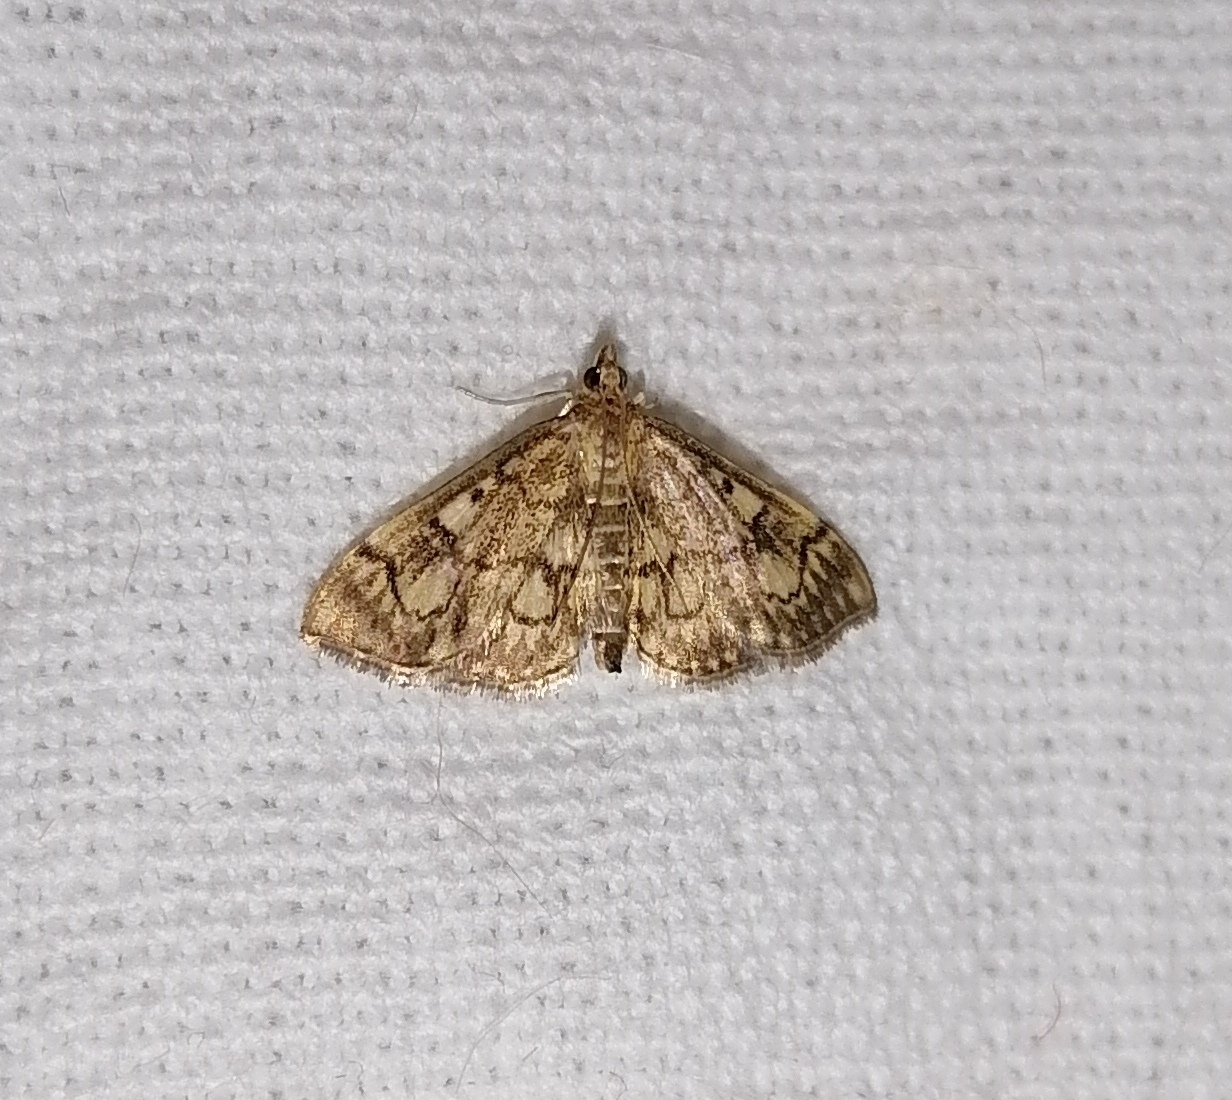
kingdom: Animalia
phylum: Arthropoda
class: Insecta
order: Lepidoptera
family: Crambidae
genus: Anania
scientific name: Anania stachydalis
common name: Woundwort pearl
